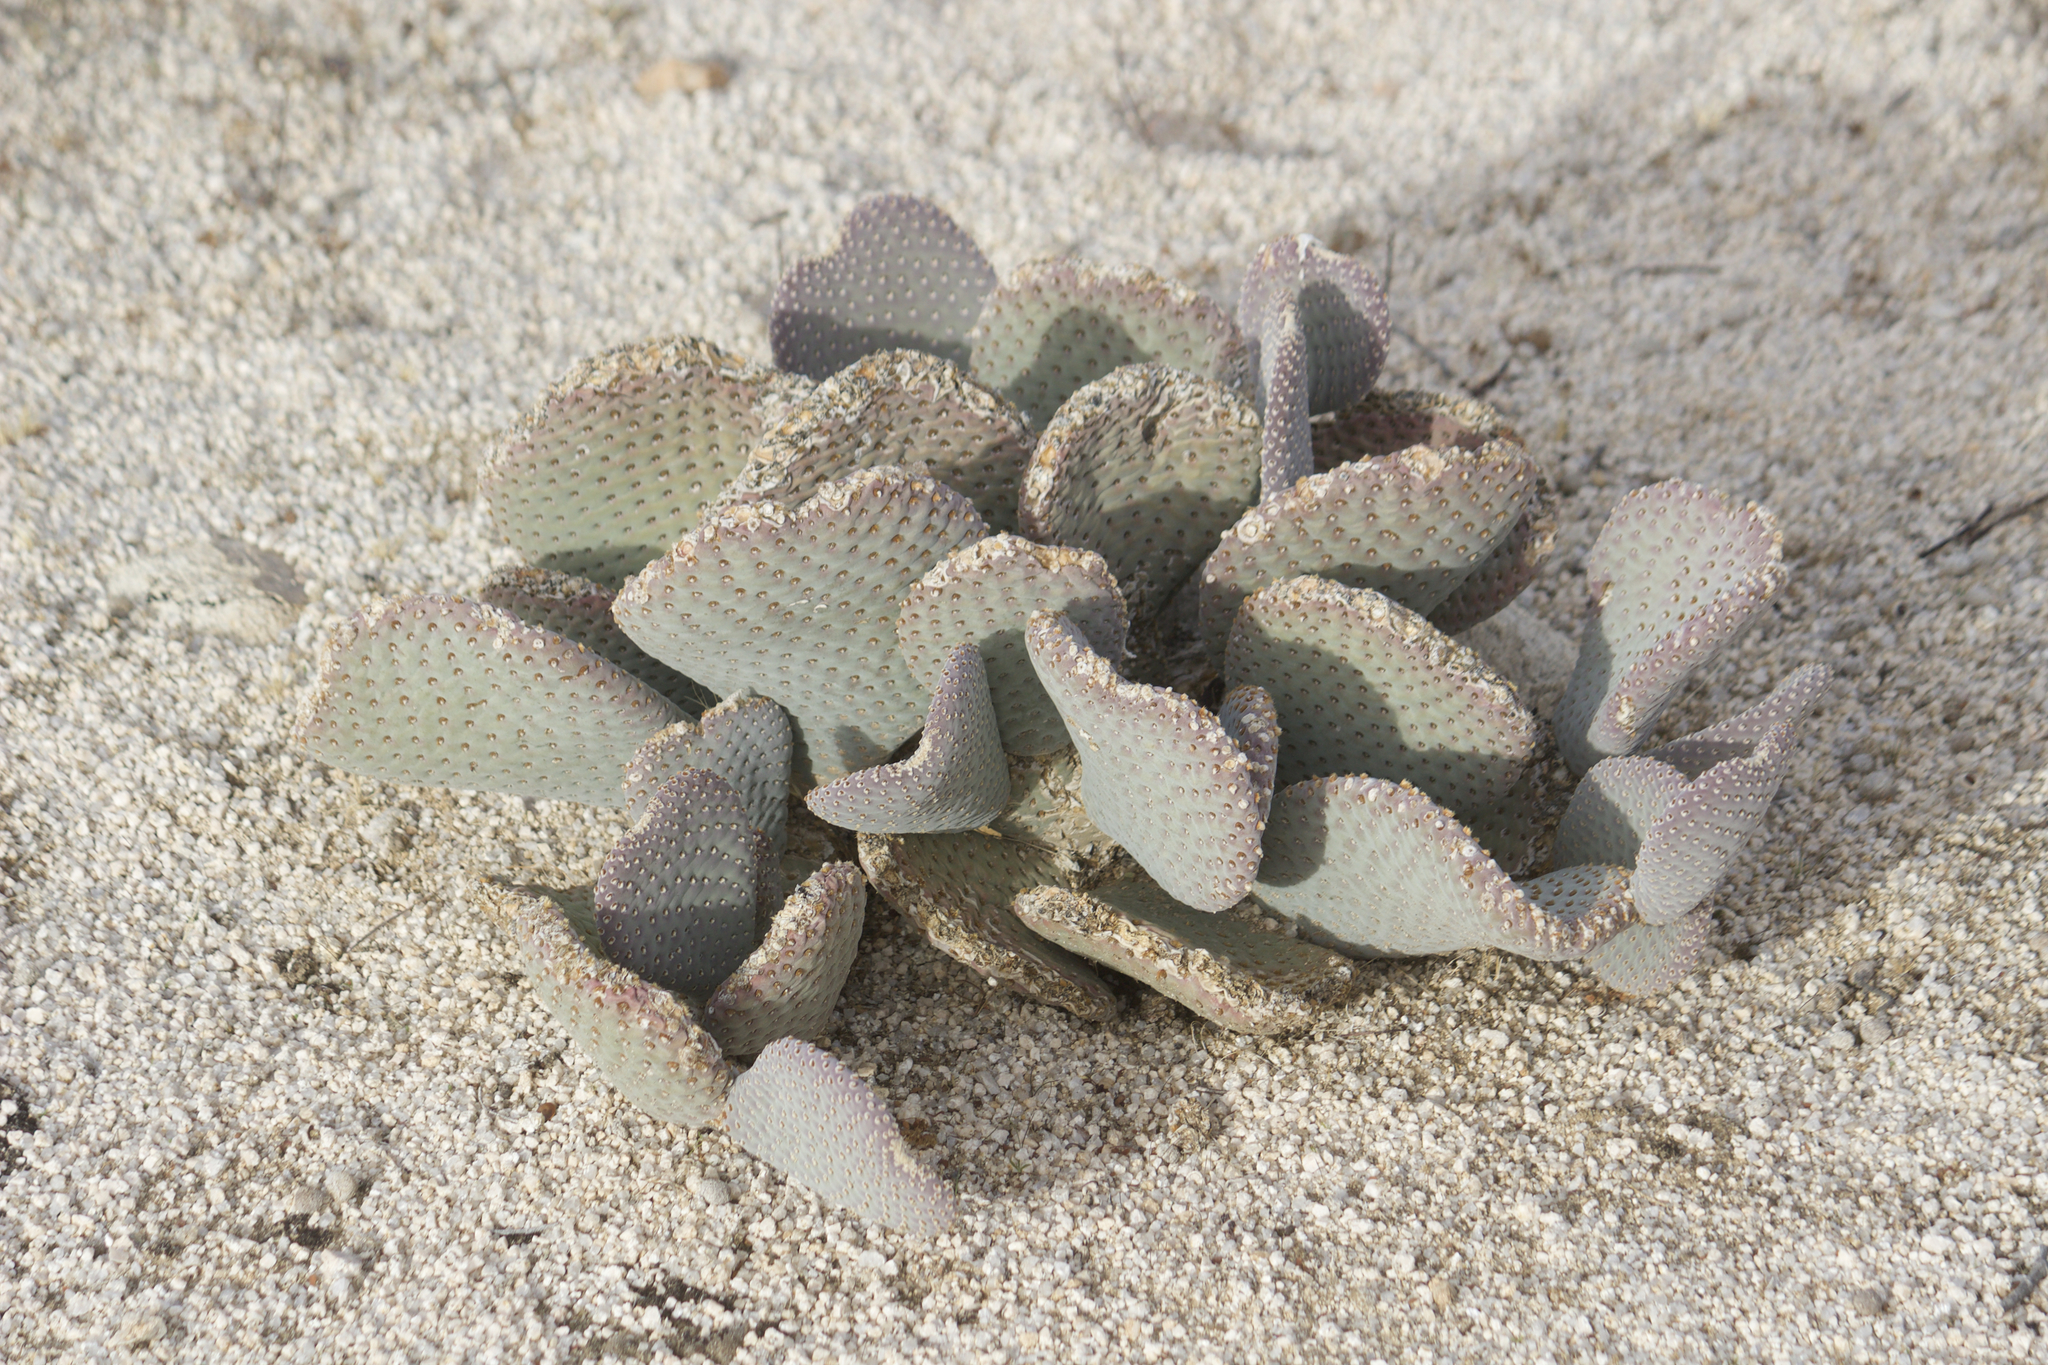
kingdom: Plantae
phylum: Tracheophyta
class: Magnoliopsida
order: Caryophyllales
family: Cactaceae
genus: Opuntia
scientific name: Opuntia basilaris
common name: Beavertail prickly-pear
